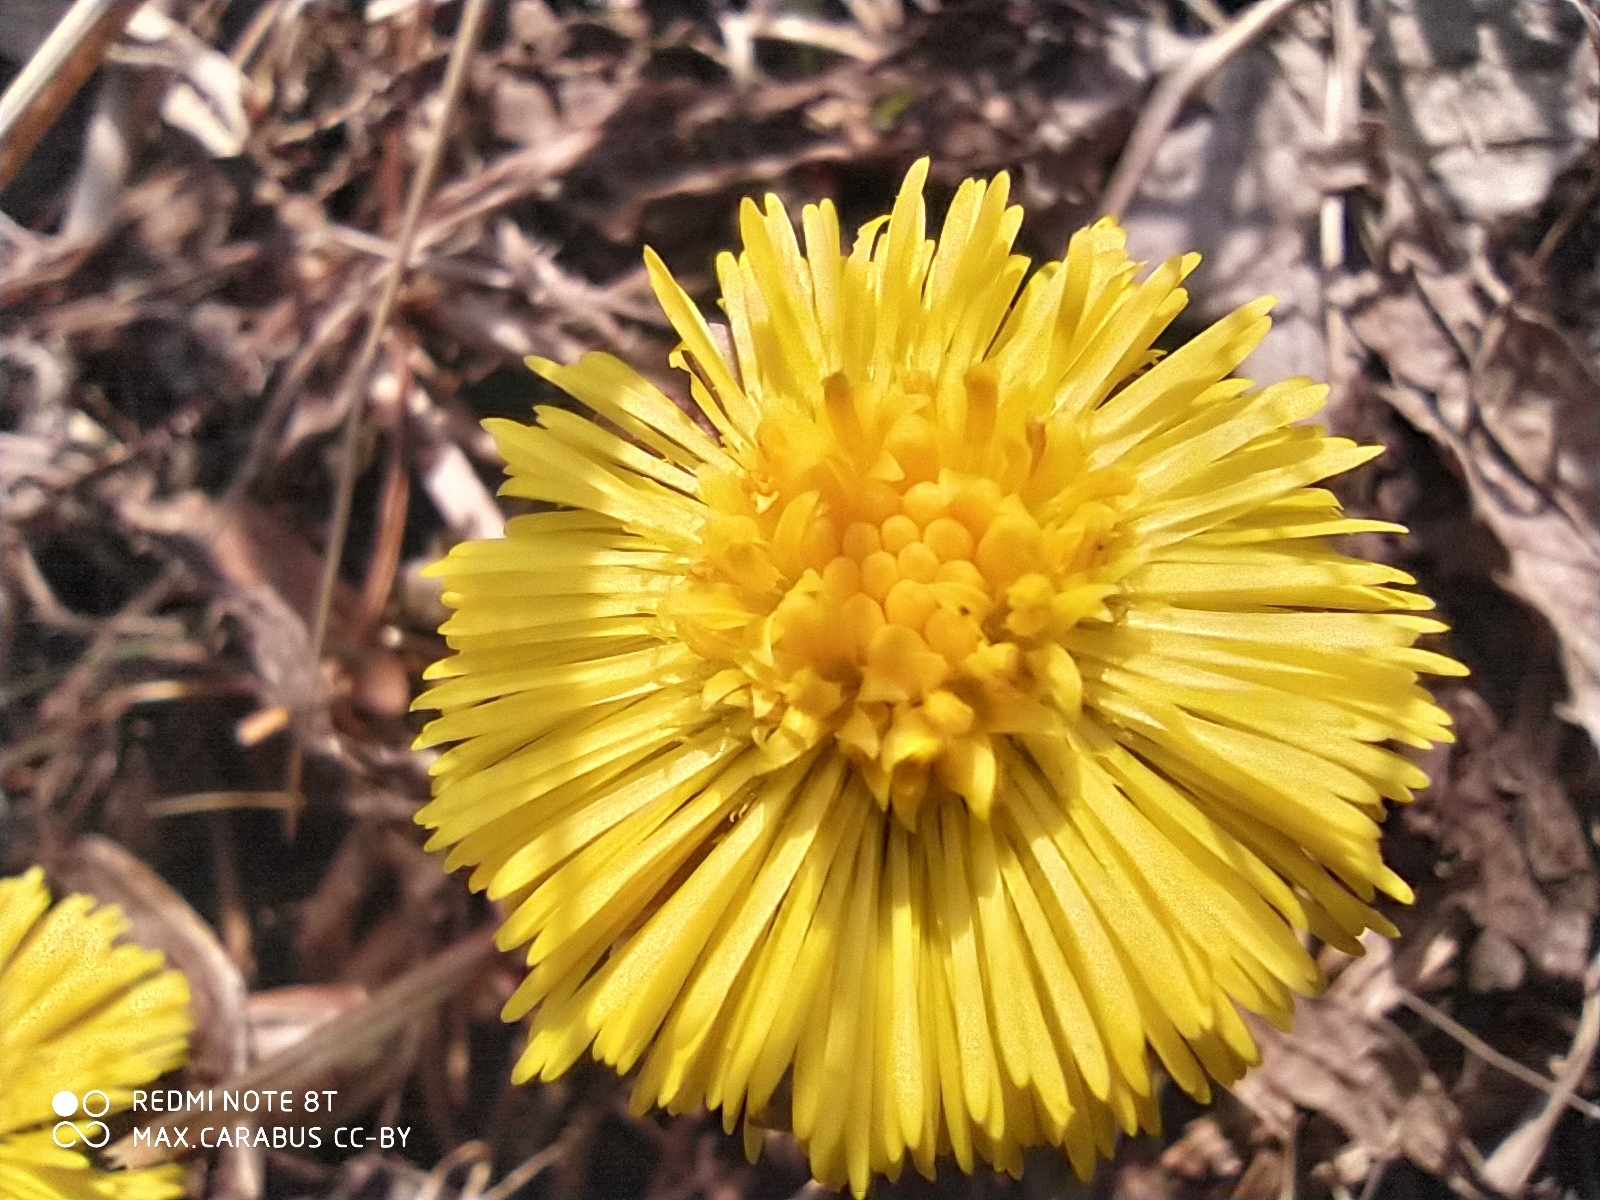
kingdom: Plantae
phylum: Tracheophyta
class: Magnoliopsida
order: Asterales
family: Asteraceae
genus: Tussilago
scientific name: Tussilago farfara
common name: Coltsfoot
